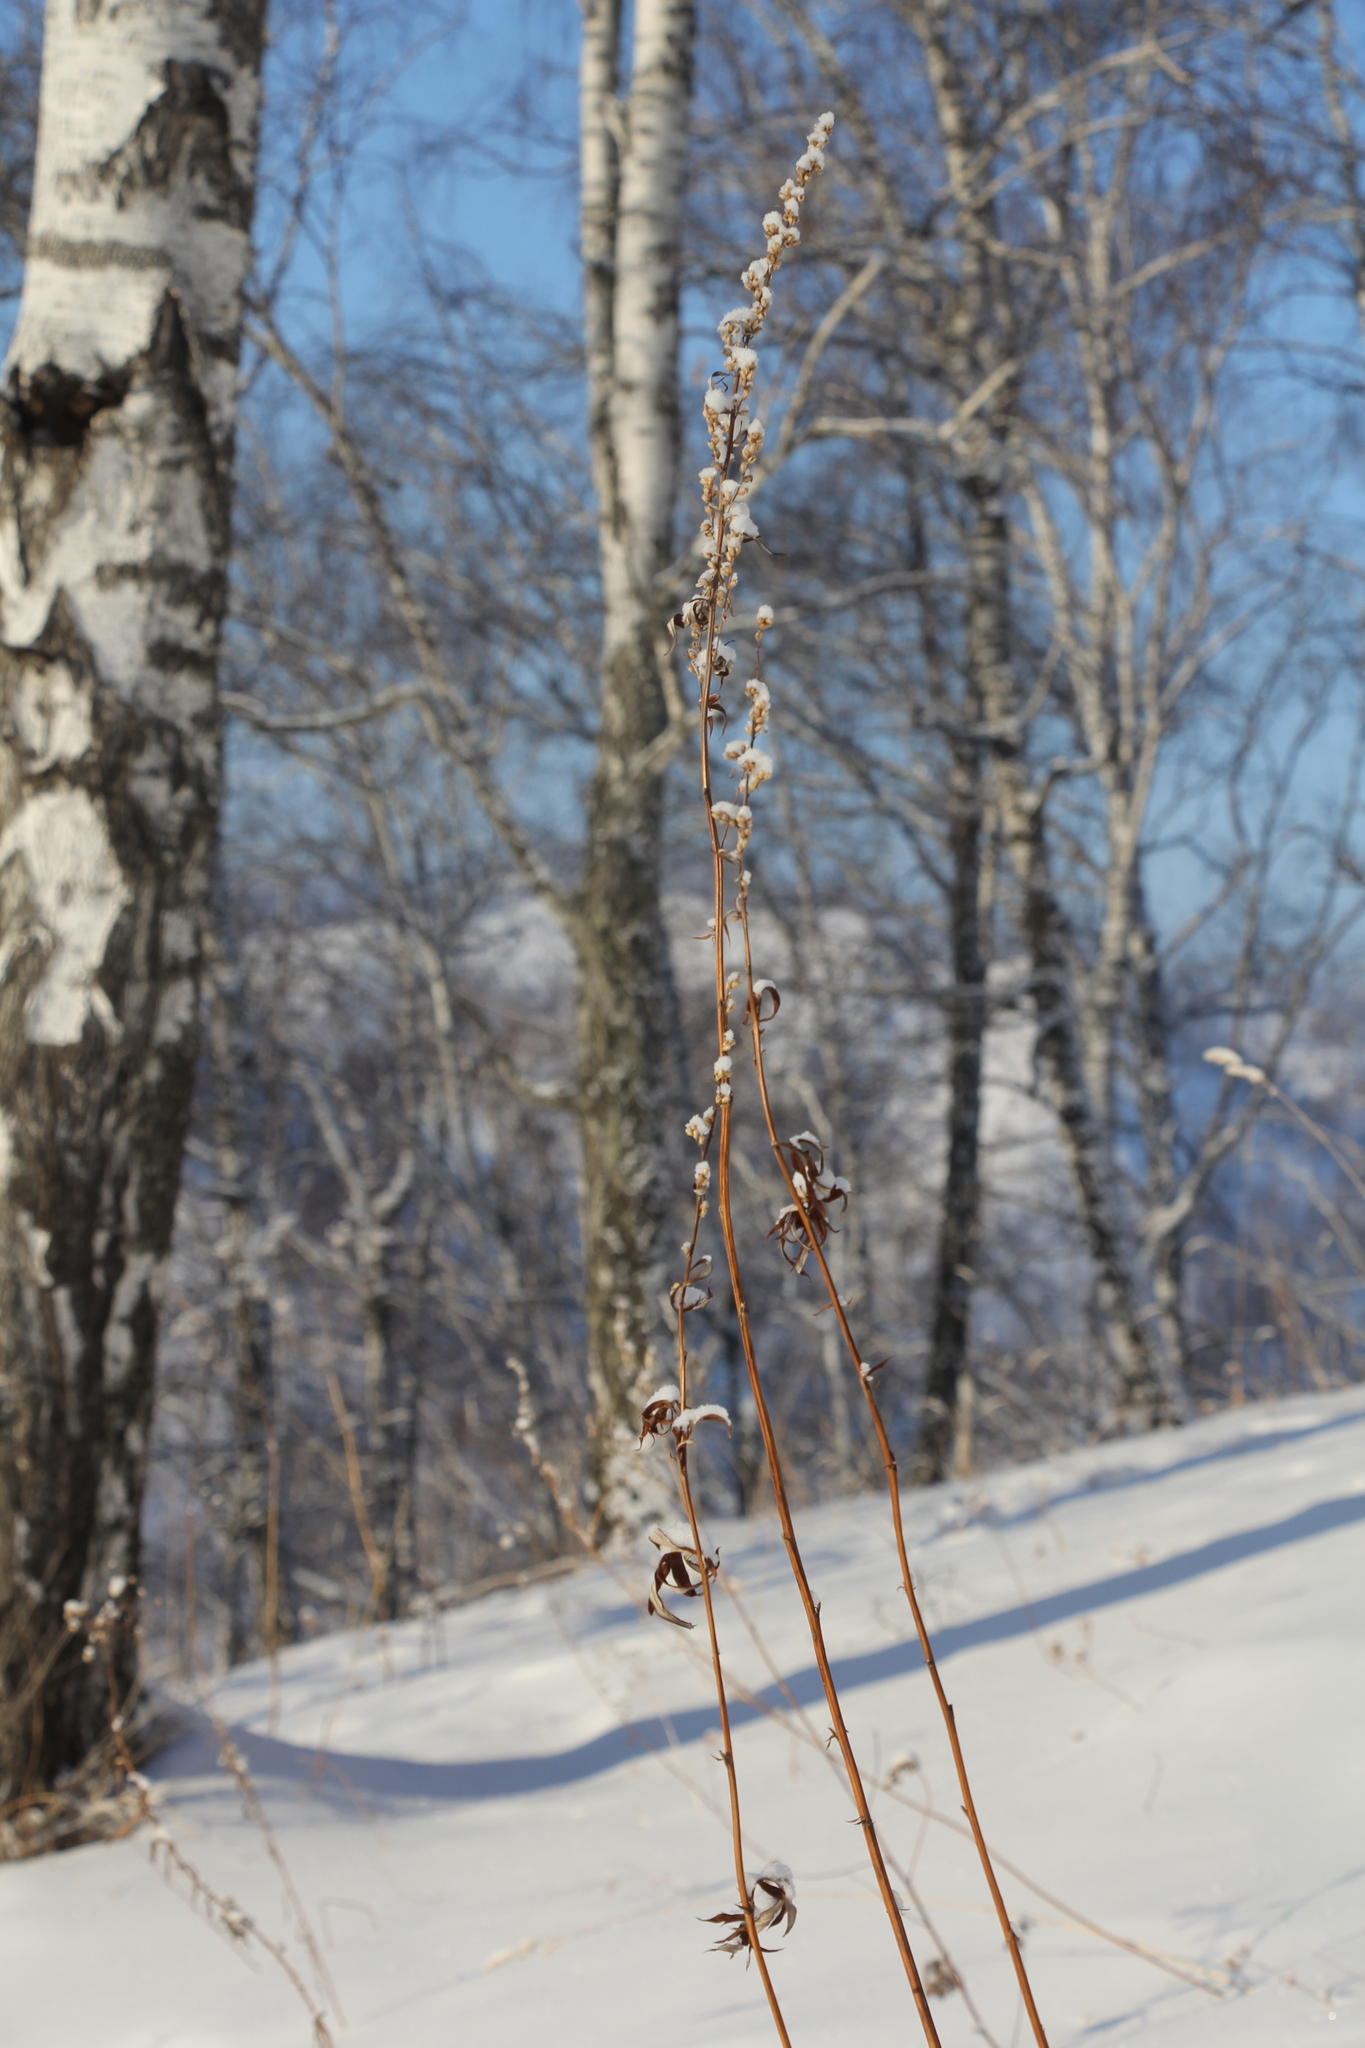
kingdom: Plantae
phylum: Tracheophyta
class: Magnoliopsida
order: Asterales
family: Asteraceae
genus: Artemisia
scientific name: Artemisia vulgaris
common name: Mugwort
